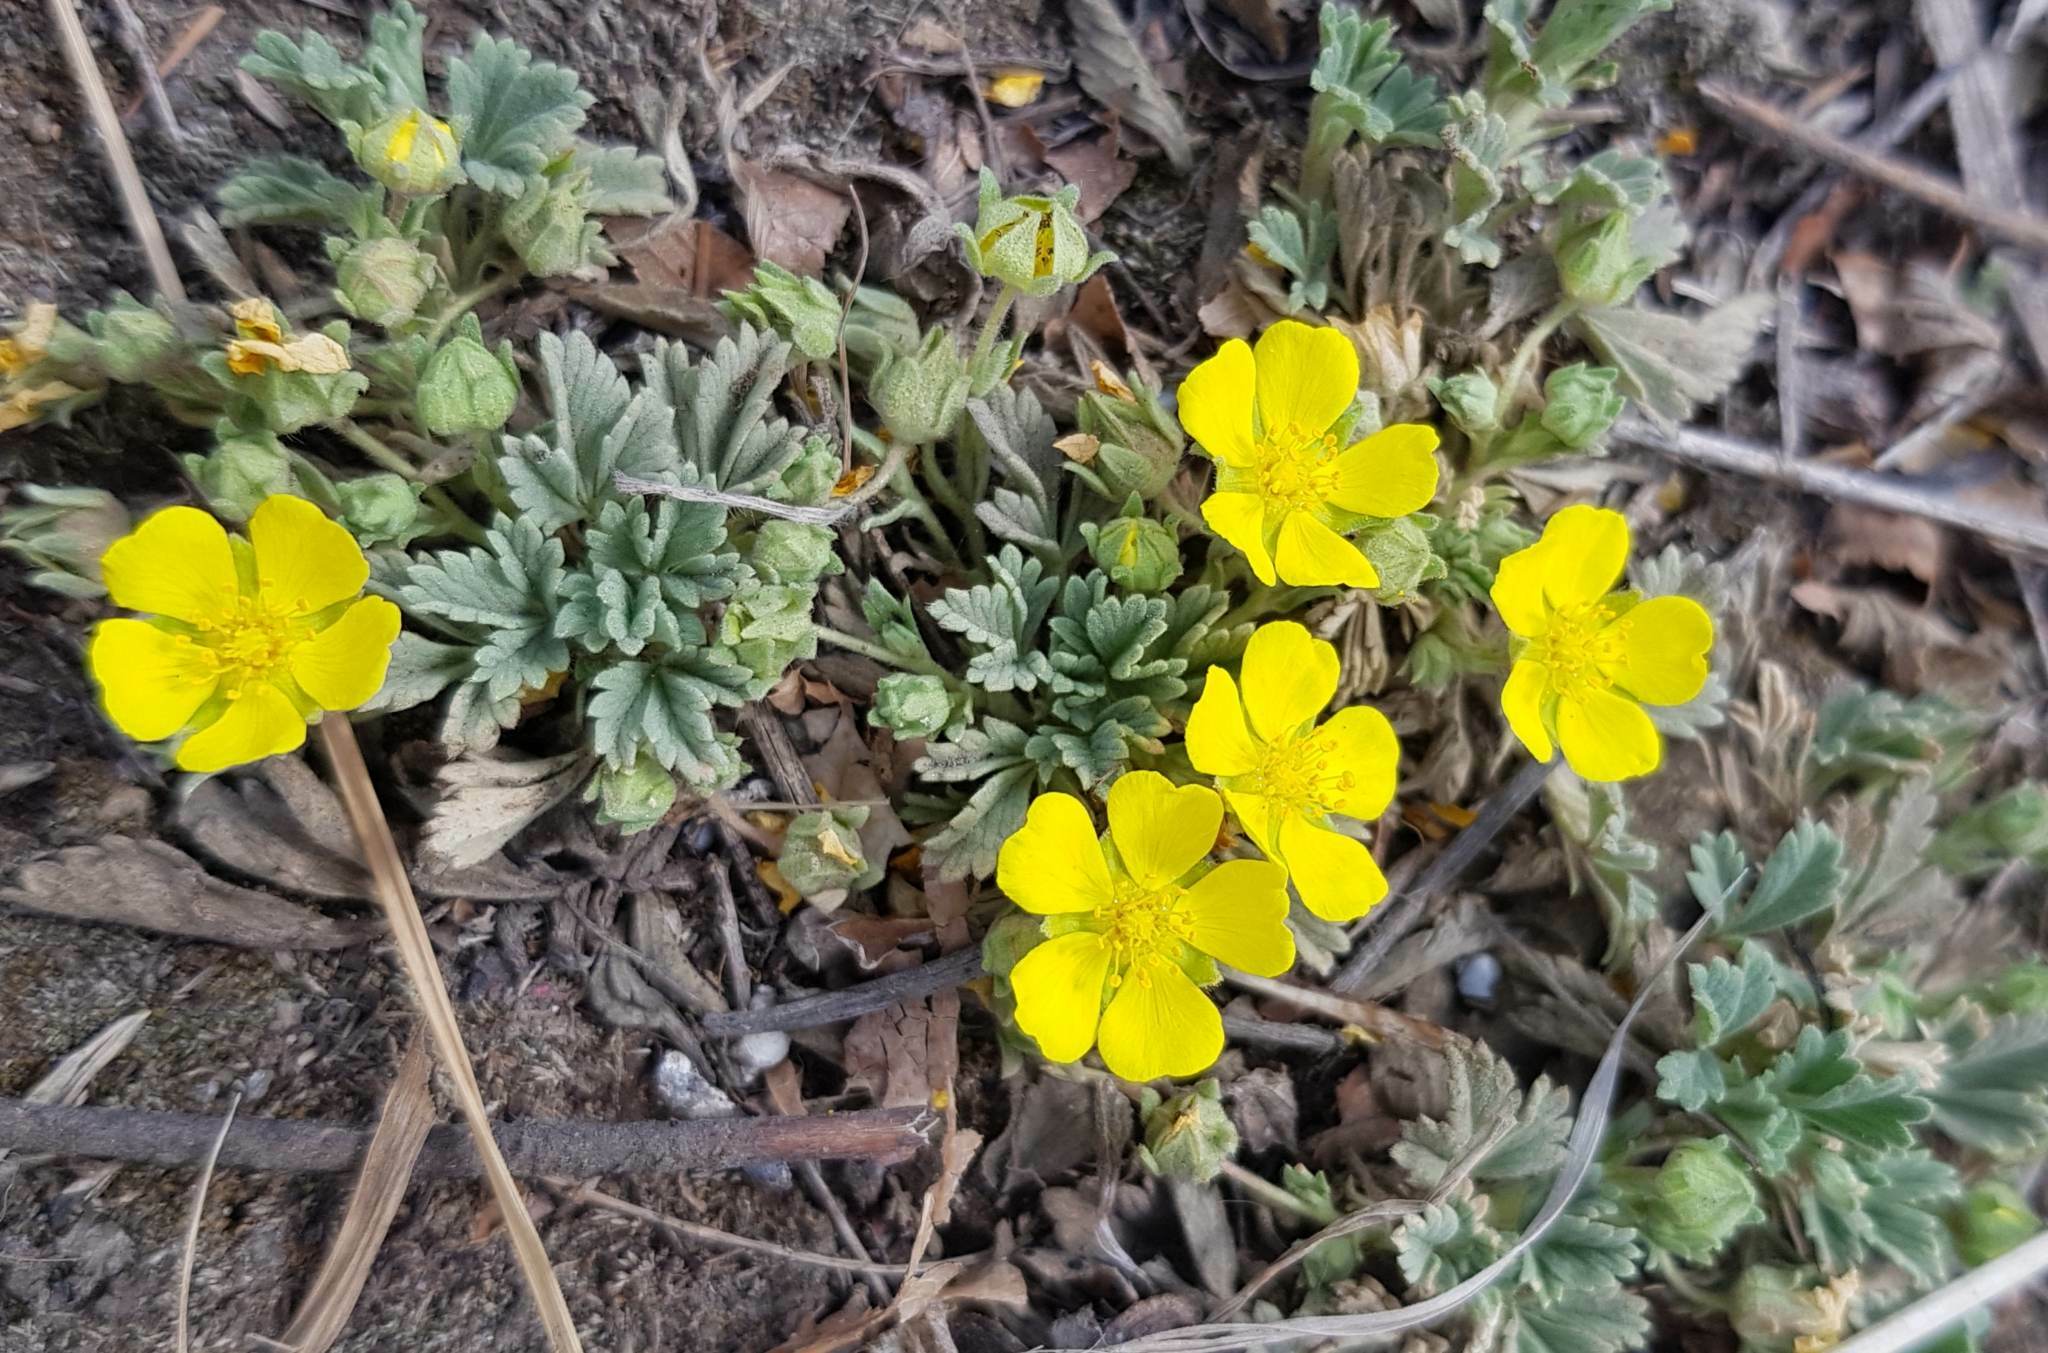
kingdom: Plantae
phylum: Tracheophyta
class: Magnoliopsida
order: Rosales
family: Rosaceae
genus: Potentilla
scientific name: Potentilla acaulis
